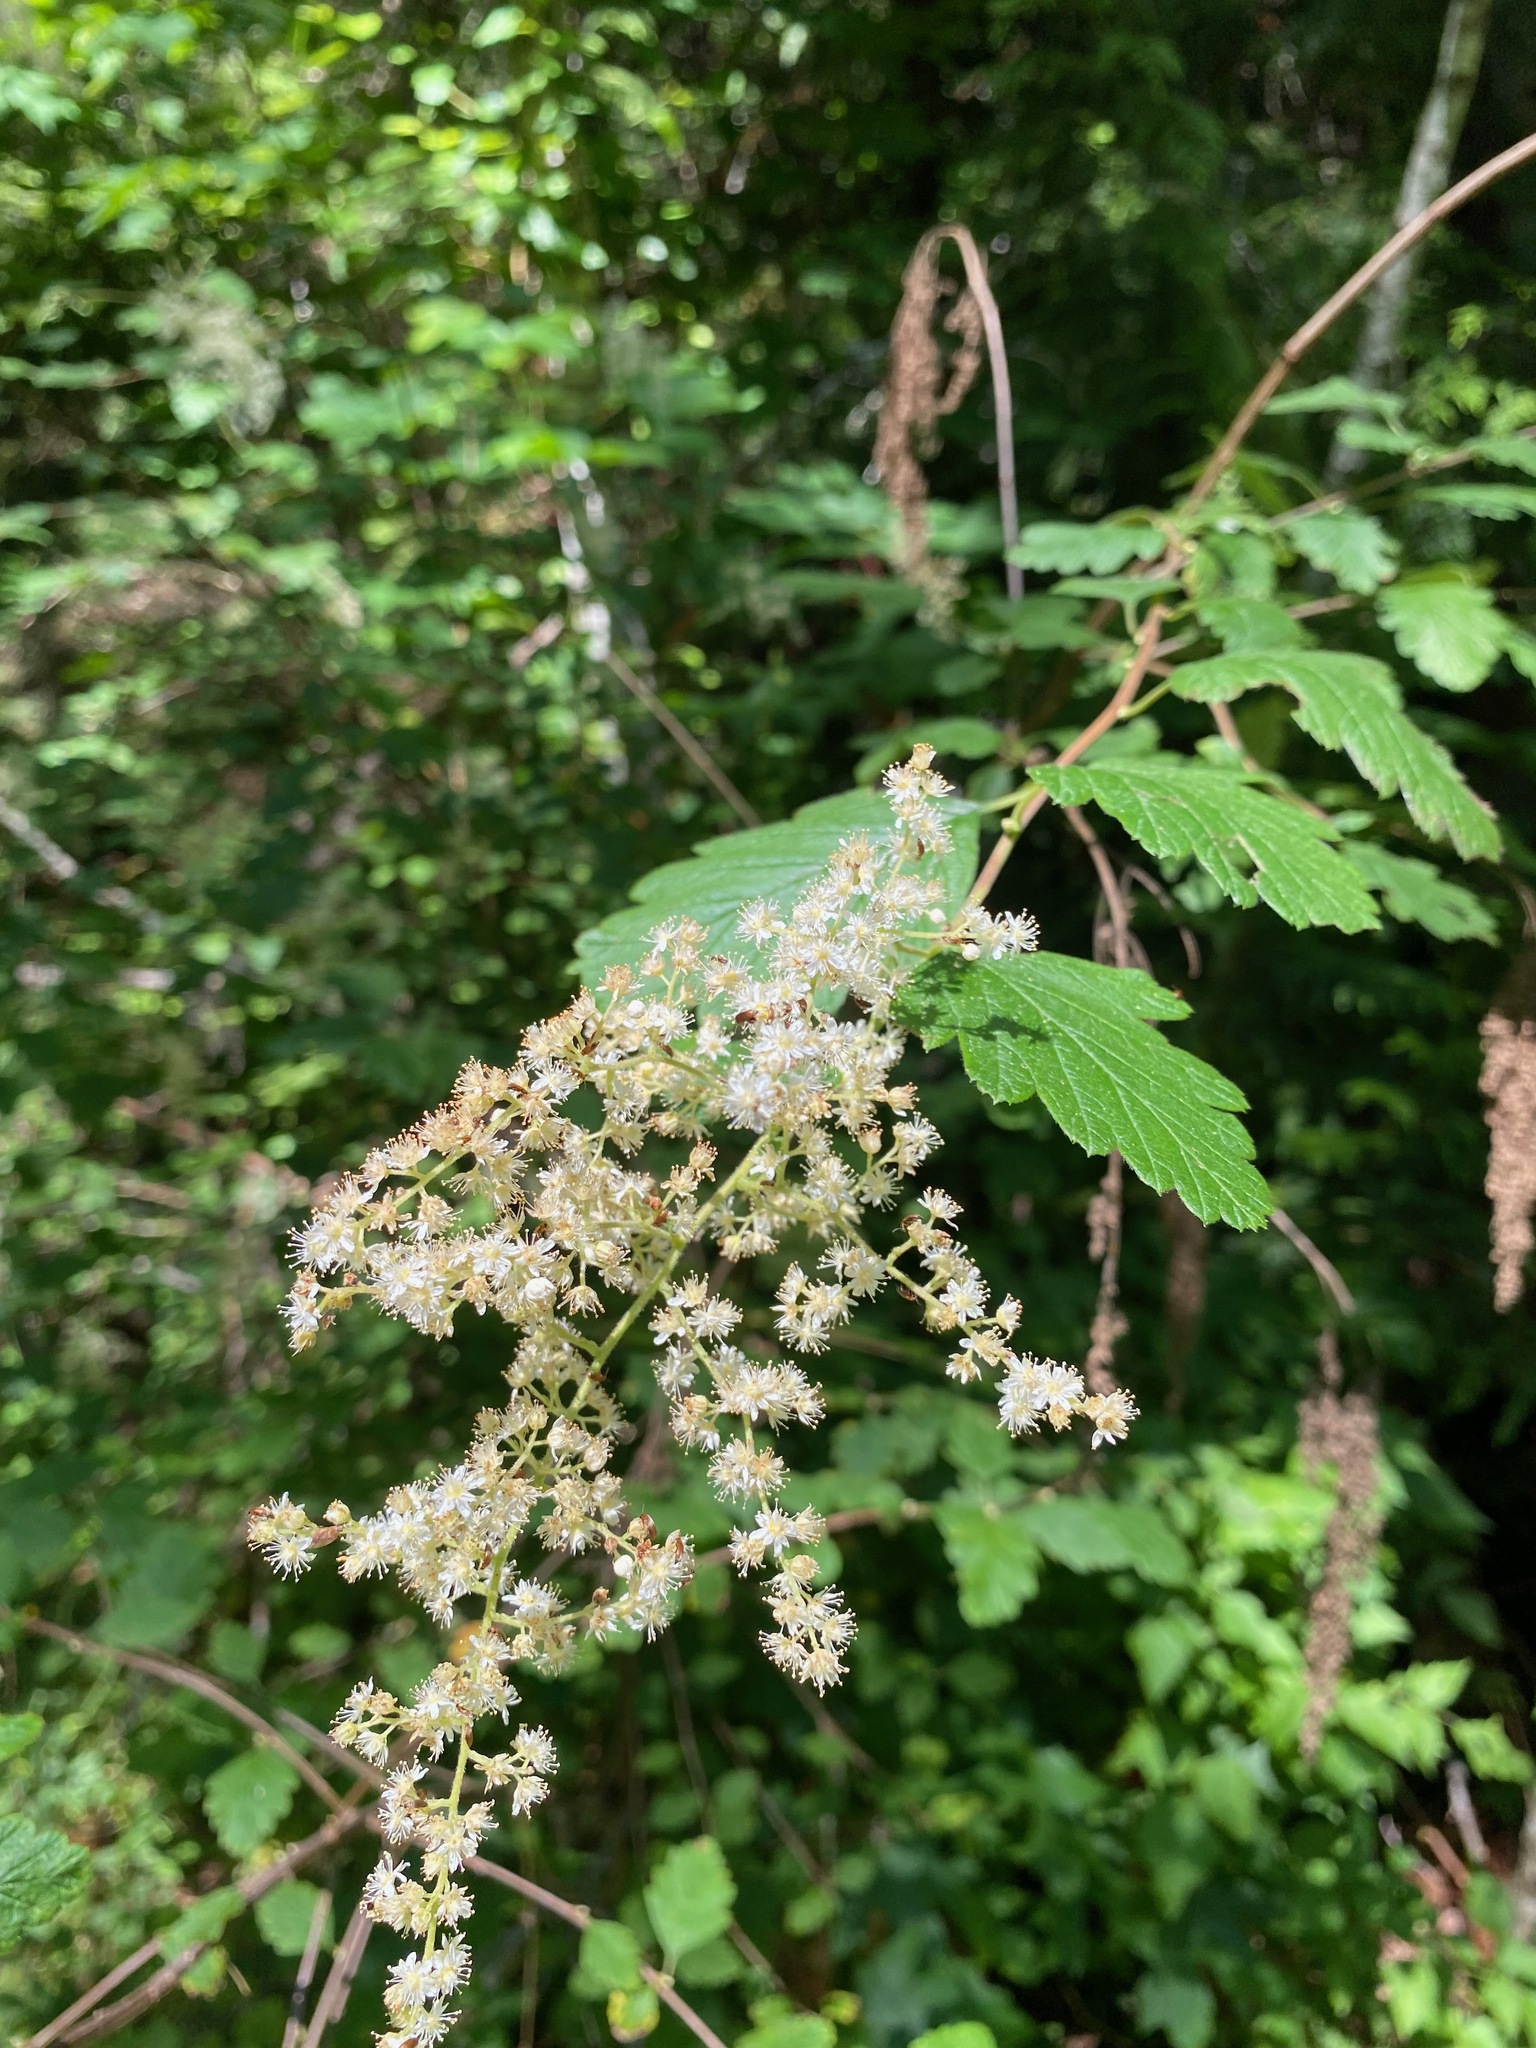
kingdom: Plantae
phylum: Tracheophyta
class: Magnoliopsida
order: Rosales
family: Rosaceae
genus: Holodiscus
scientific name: Holodiscus discolor
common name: Oceanspray
